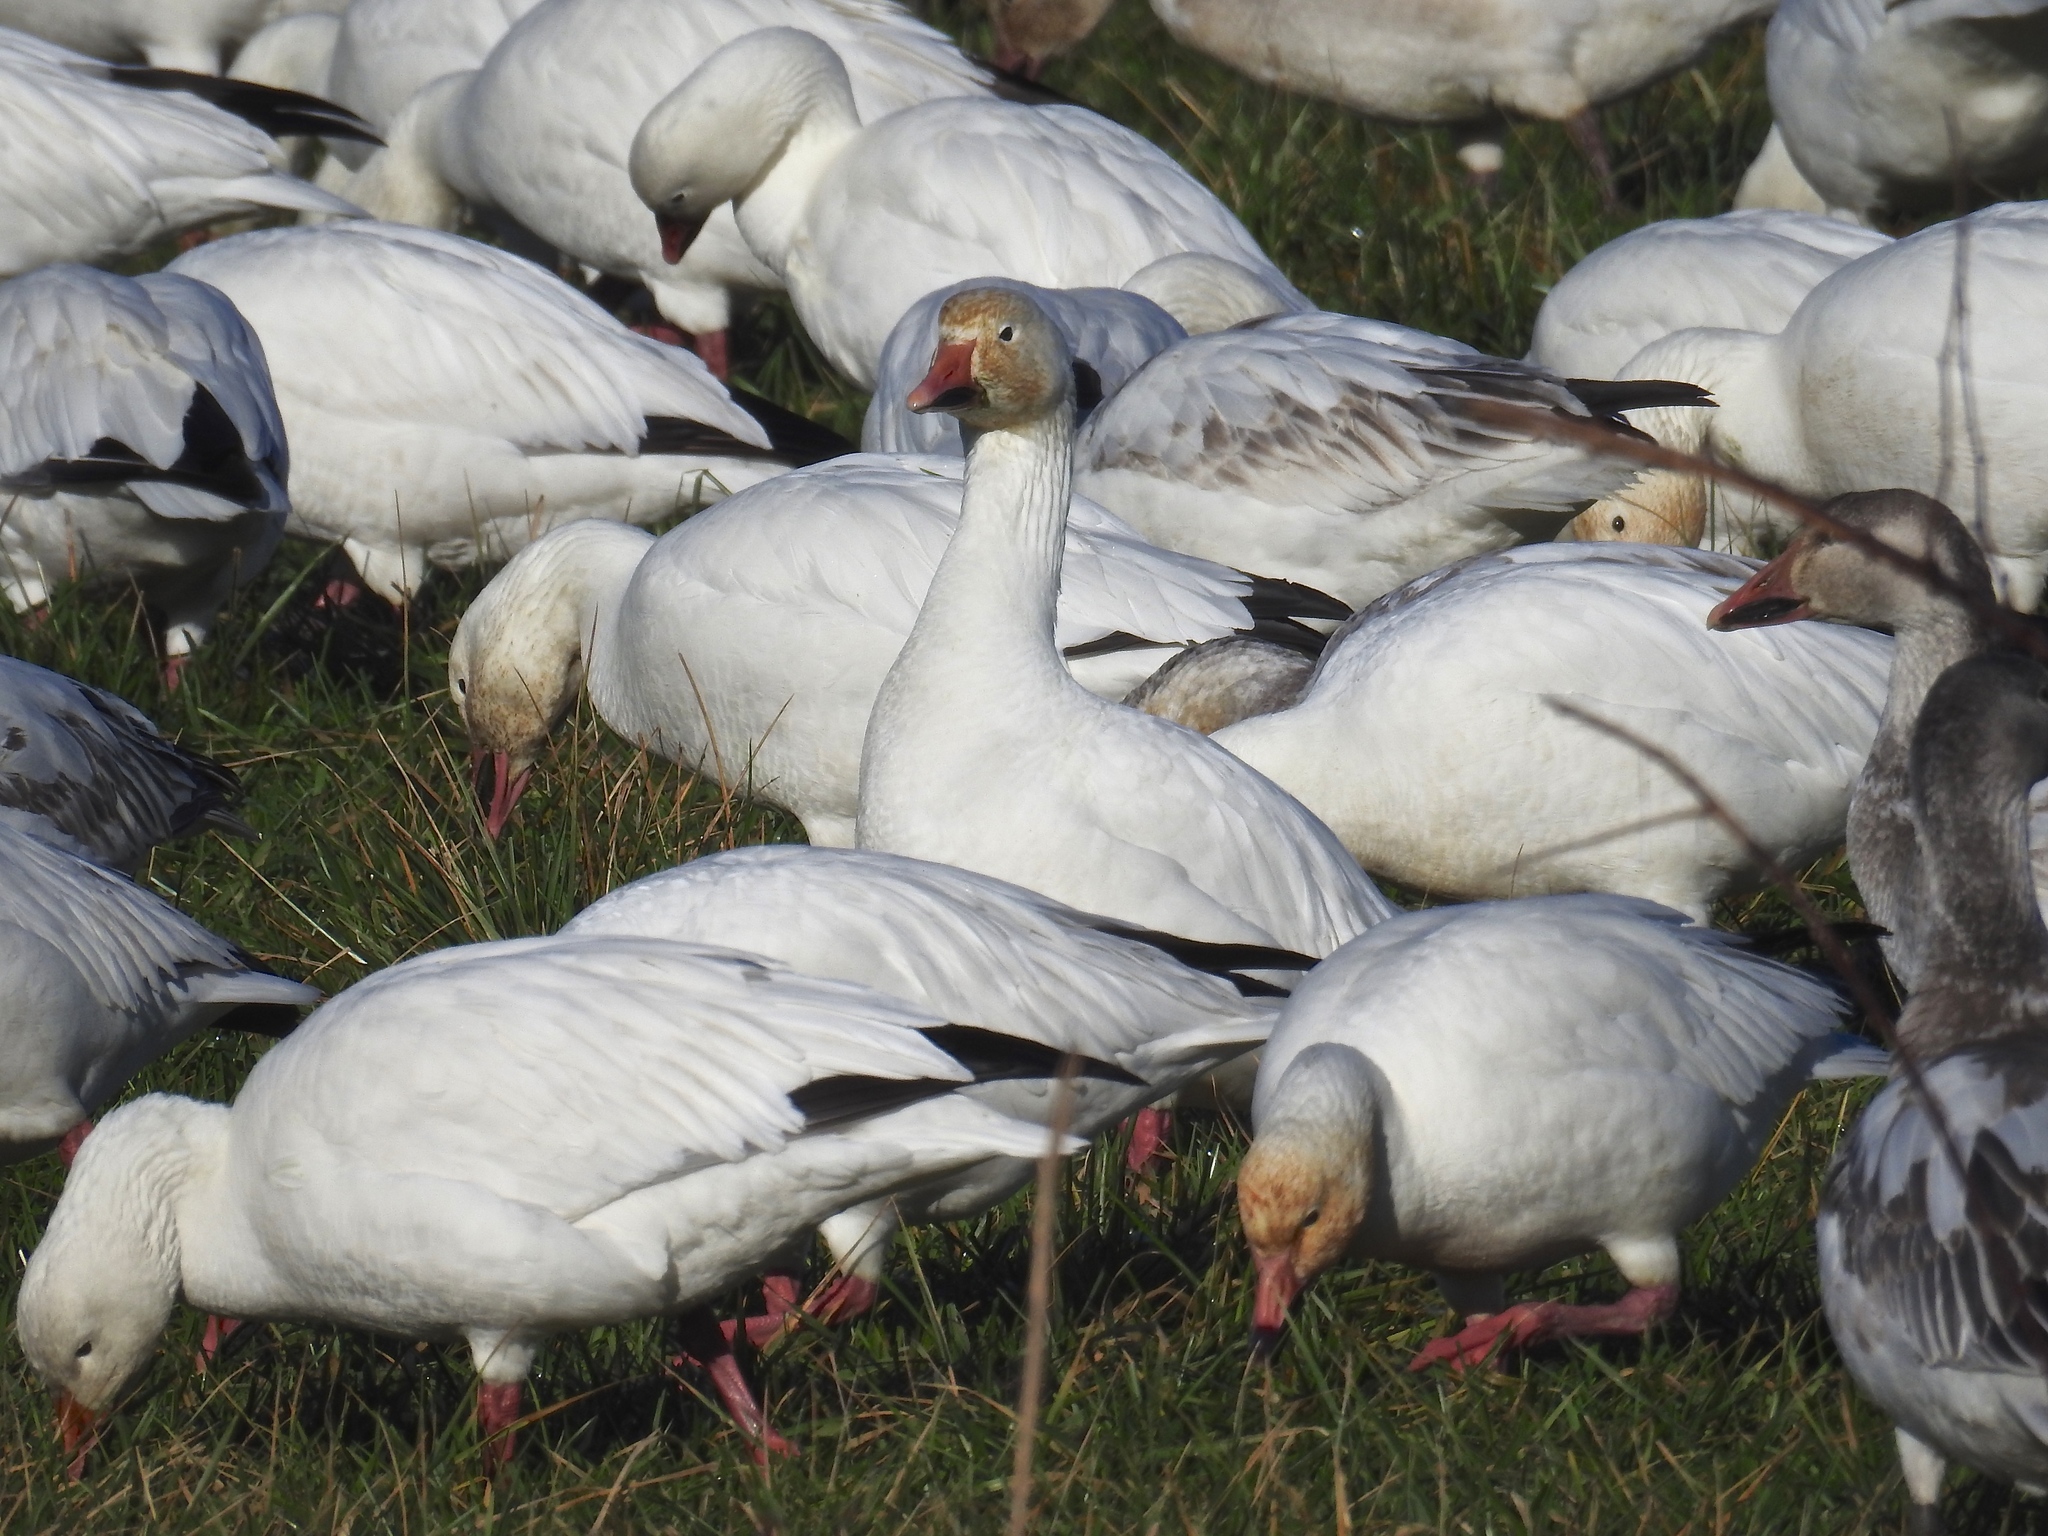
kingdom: Animalia
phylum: Chordata
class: Aves
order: Anseriformes
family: Anatidae
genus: Anser
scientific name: Anser caerulescens
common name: Snow goose
